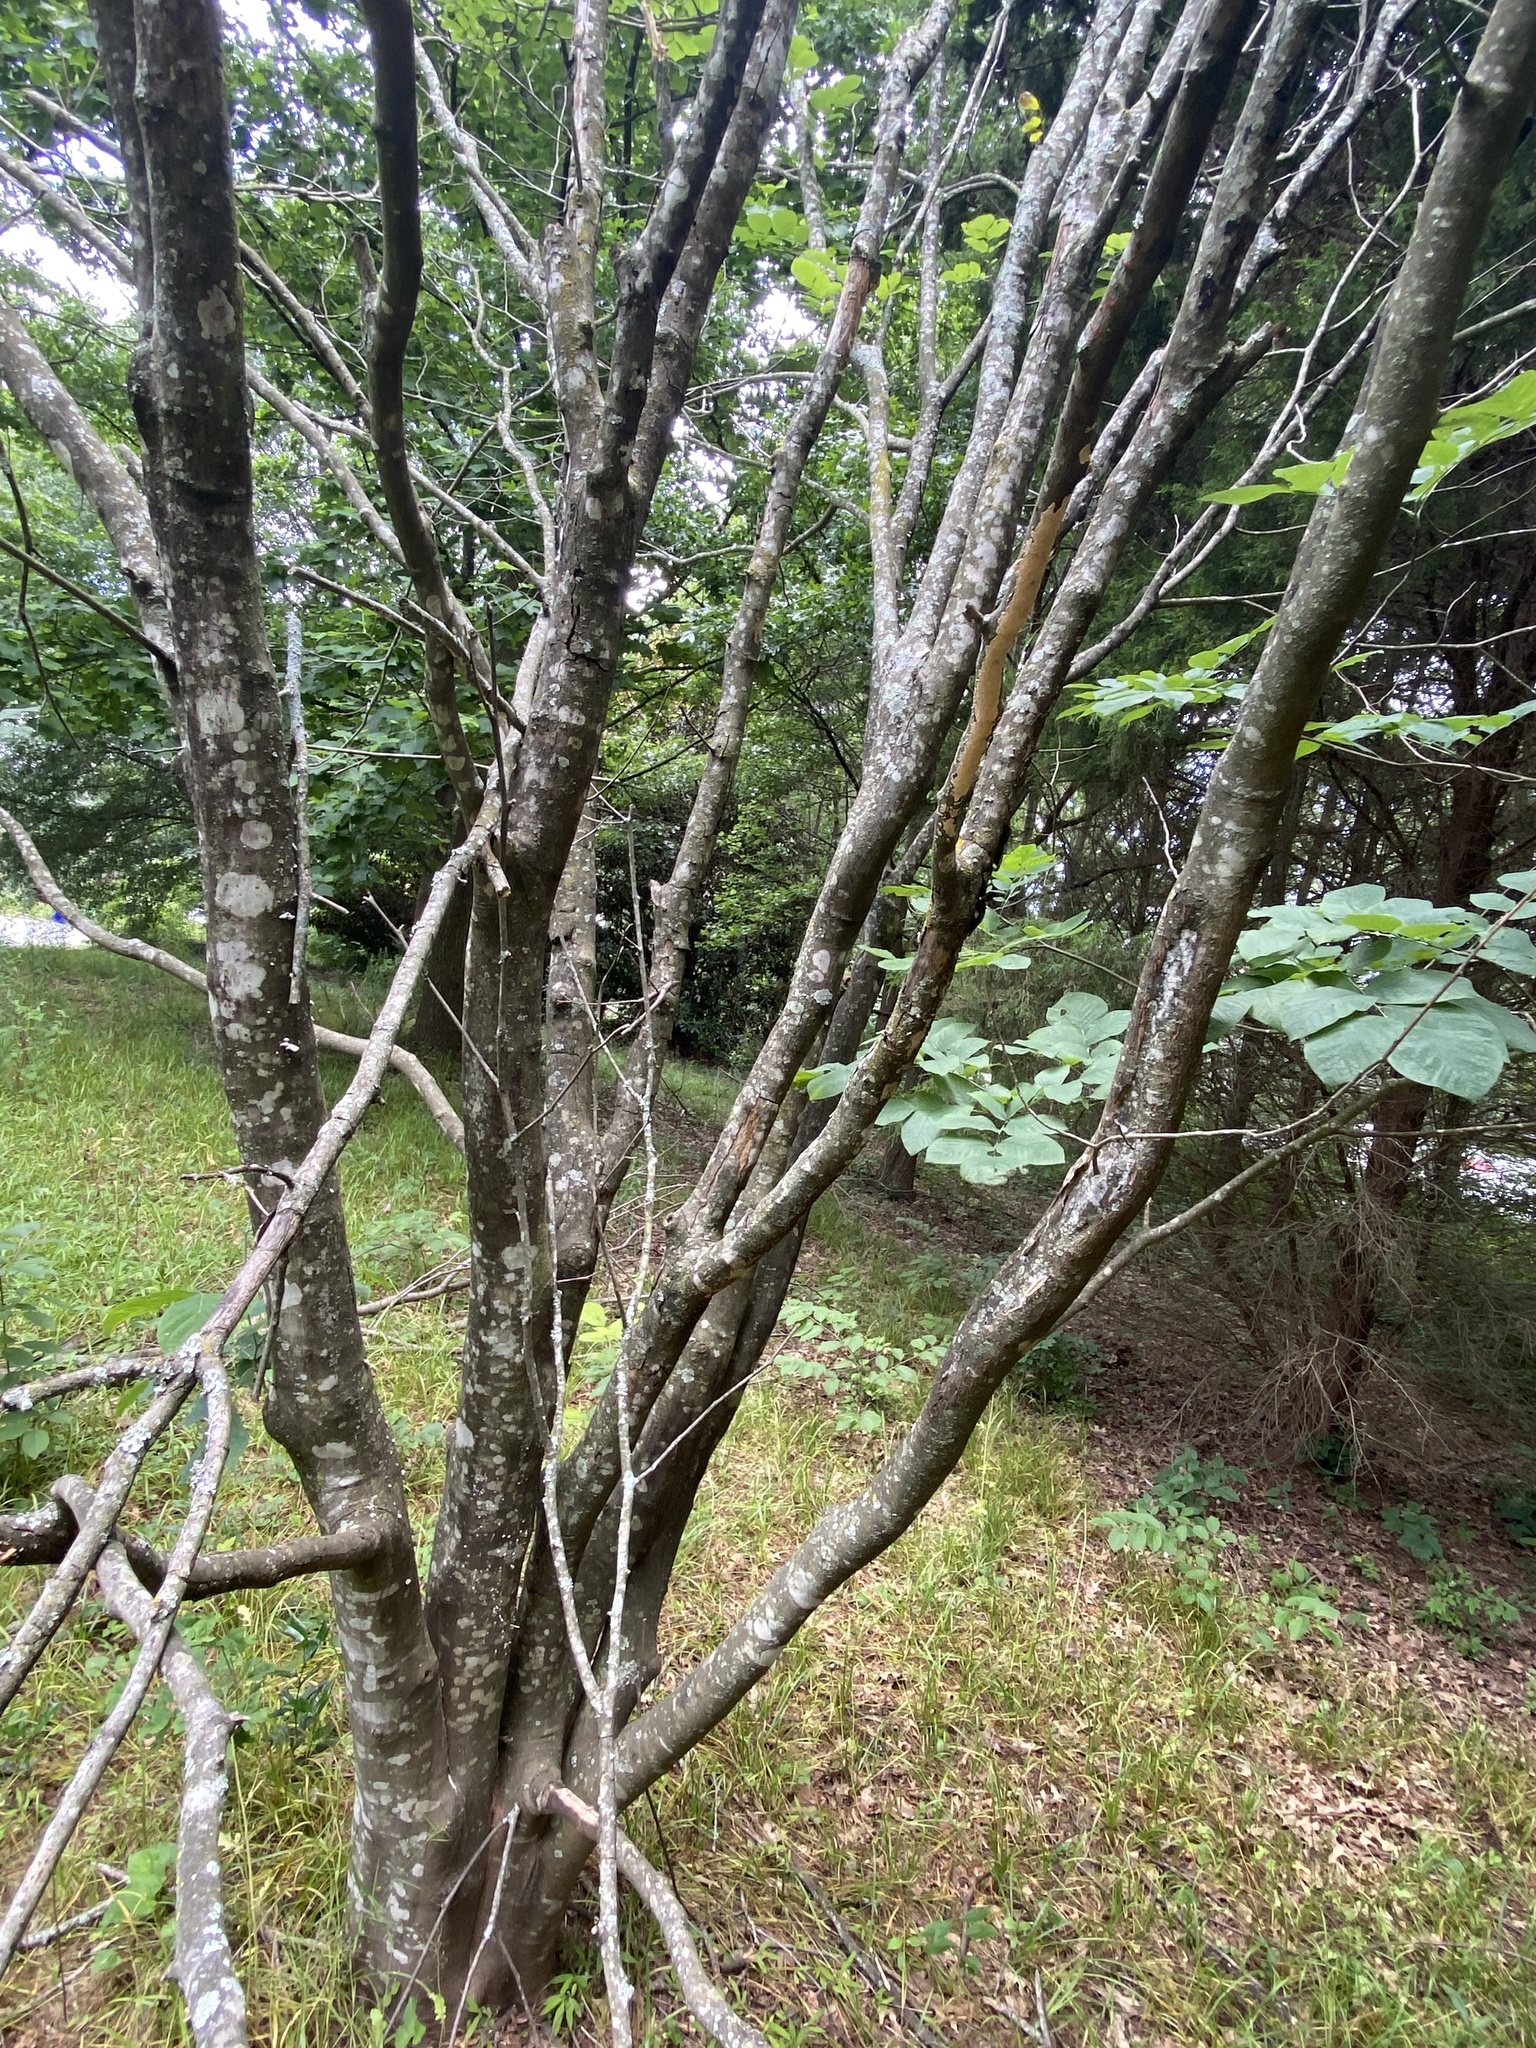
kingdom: Plantae
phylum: Tracheophyta
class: Magnoliopsida
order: Fabales
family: Fabaceae
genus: Cladrastis
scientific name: Cladrastis kentukea
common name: Kentucky yellow-wood
